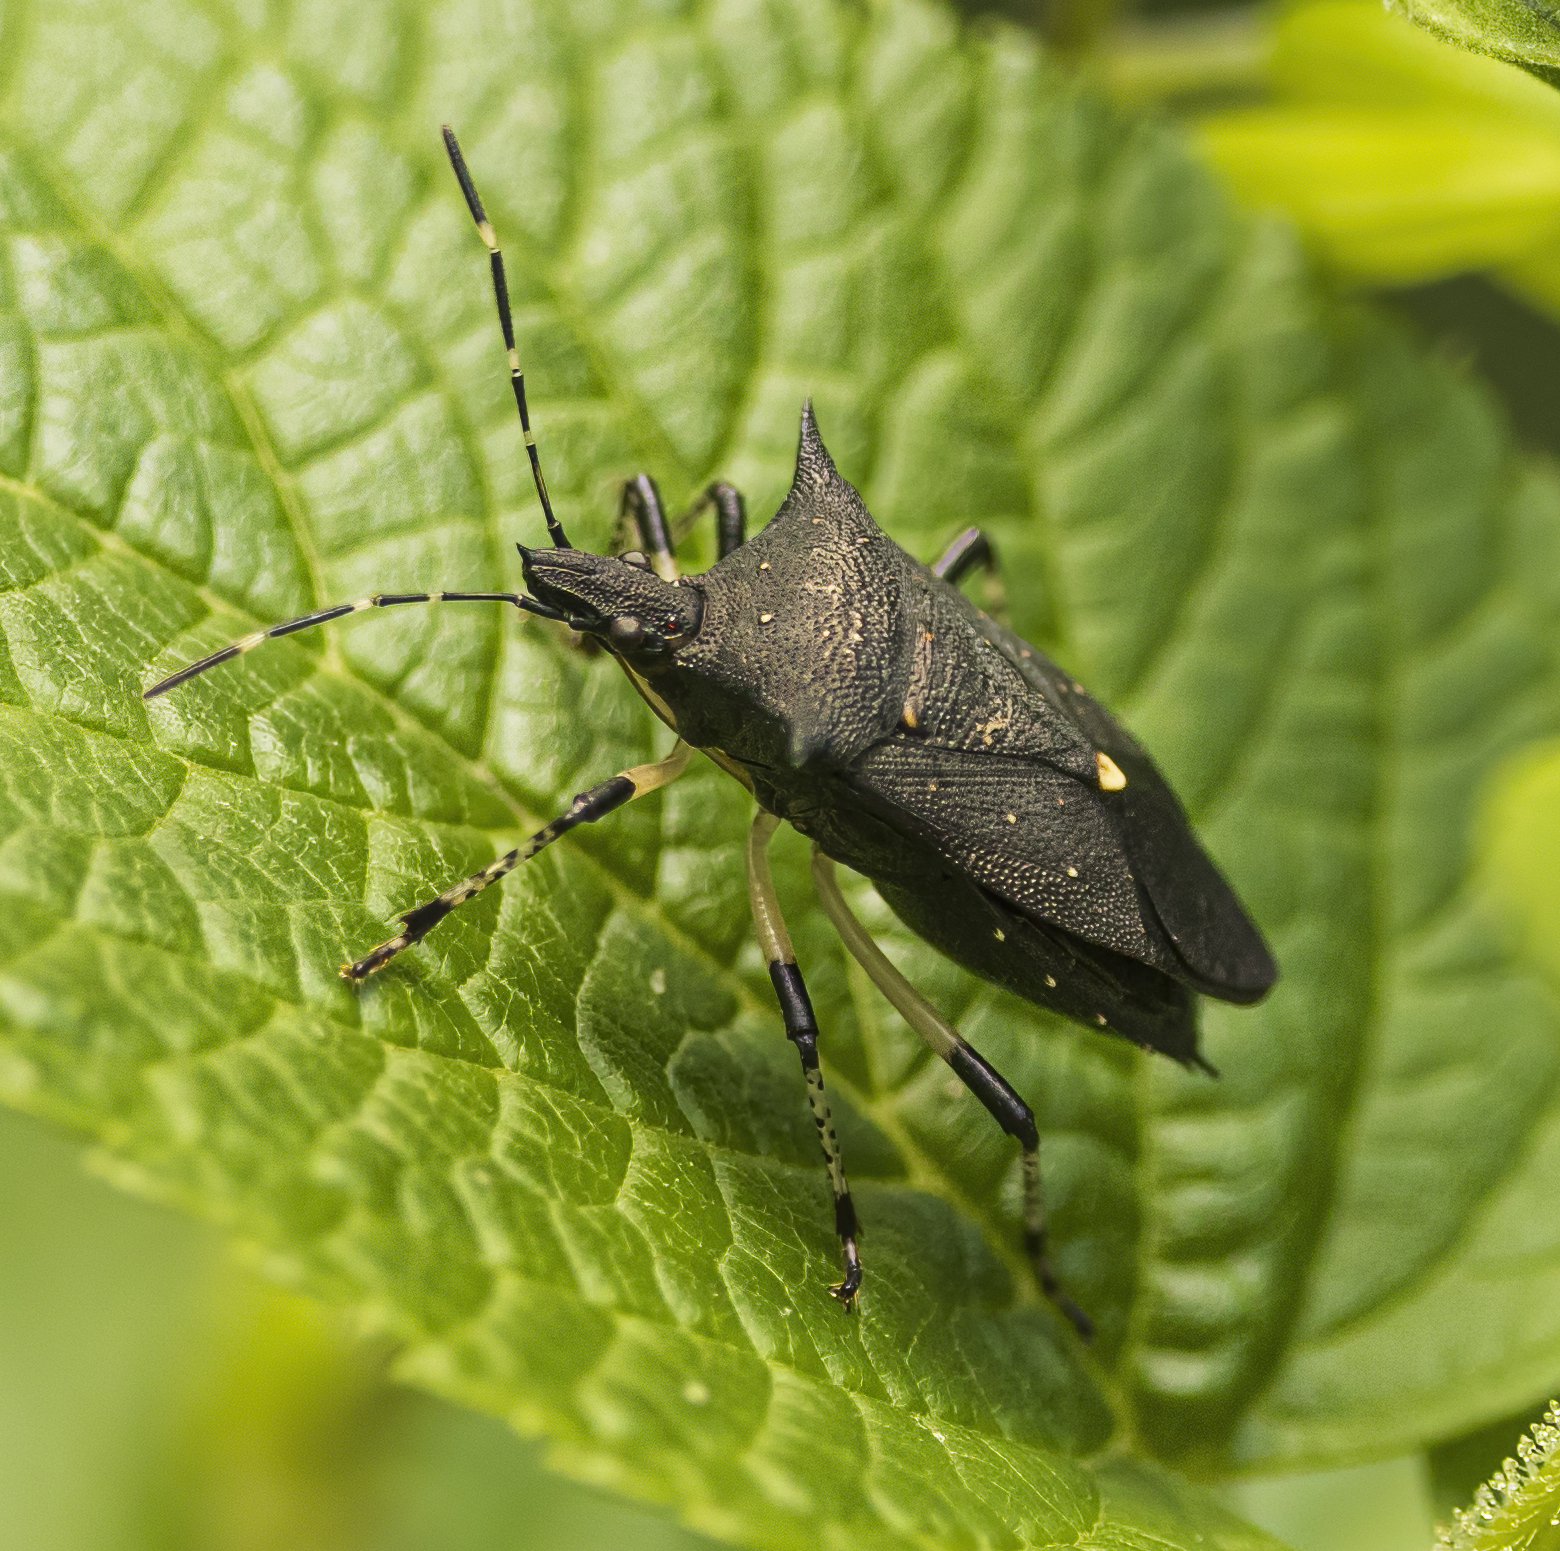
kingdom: Animalia
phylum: Arthropoda
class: Insecta
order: Hemiptera
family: Pentatomidae
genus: Proxys
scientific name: Proxys punctulatus
